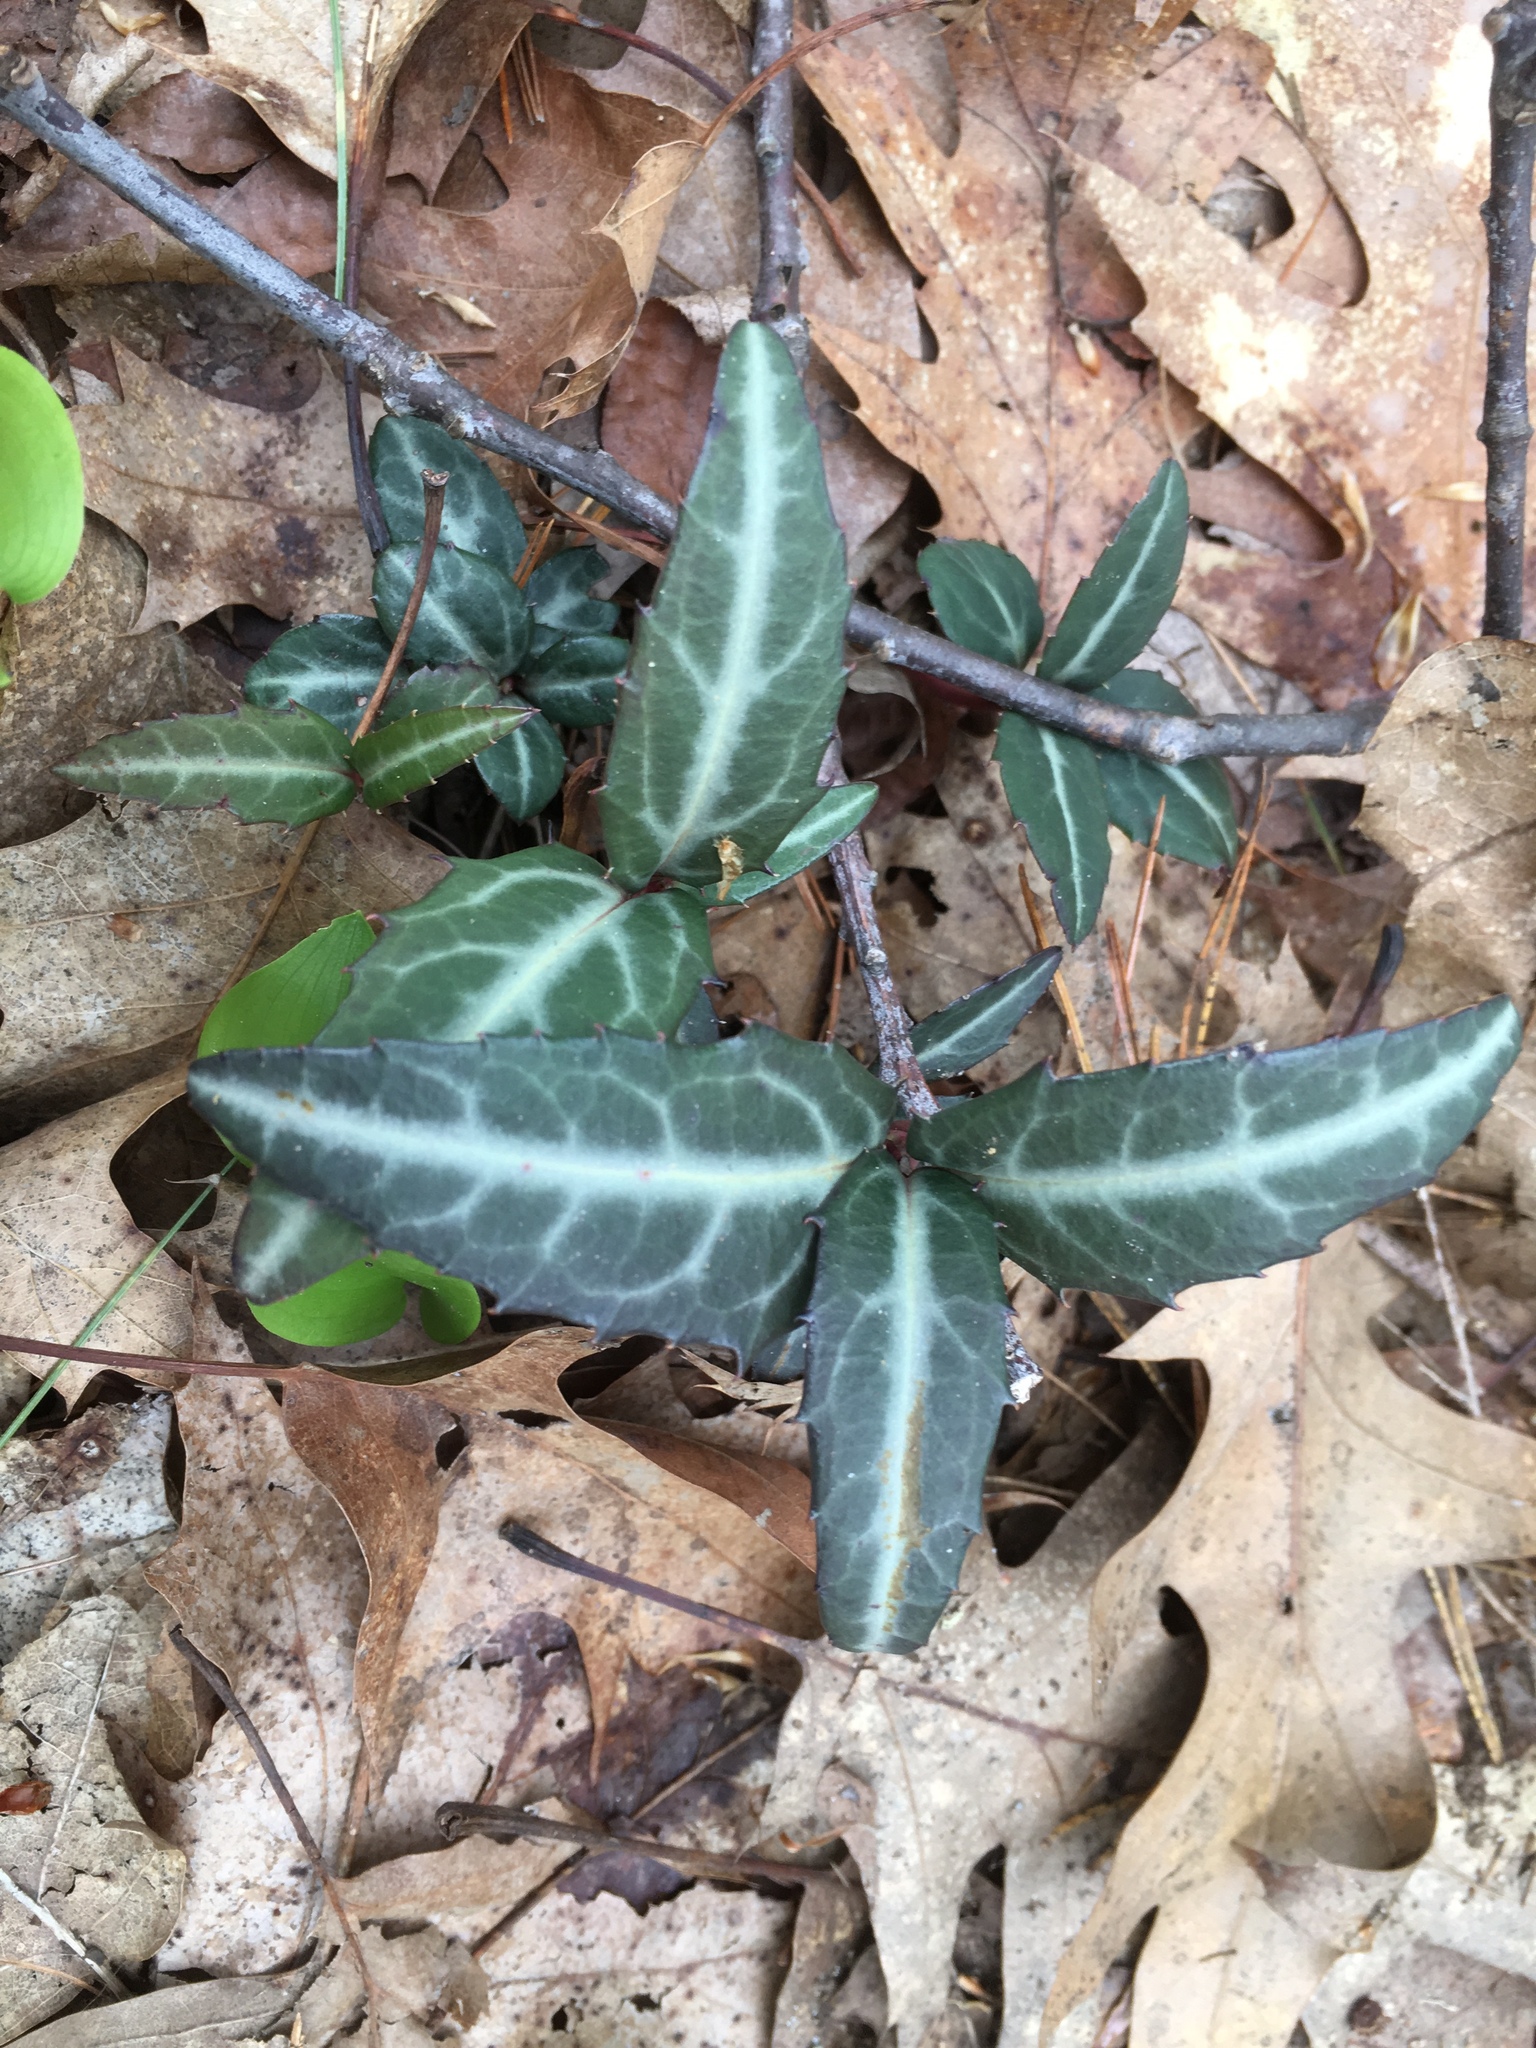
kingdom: Plantae
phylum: Tracheophyta
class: Magnoliopsida
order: Ericales
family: Ericaceae
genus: Chimaphila
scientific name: Chimaphila maculata
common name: Spotted pipsissewa
